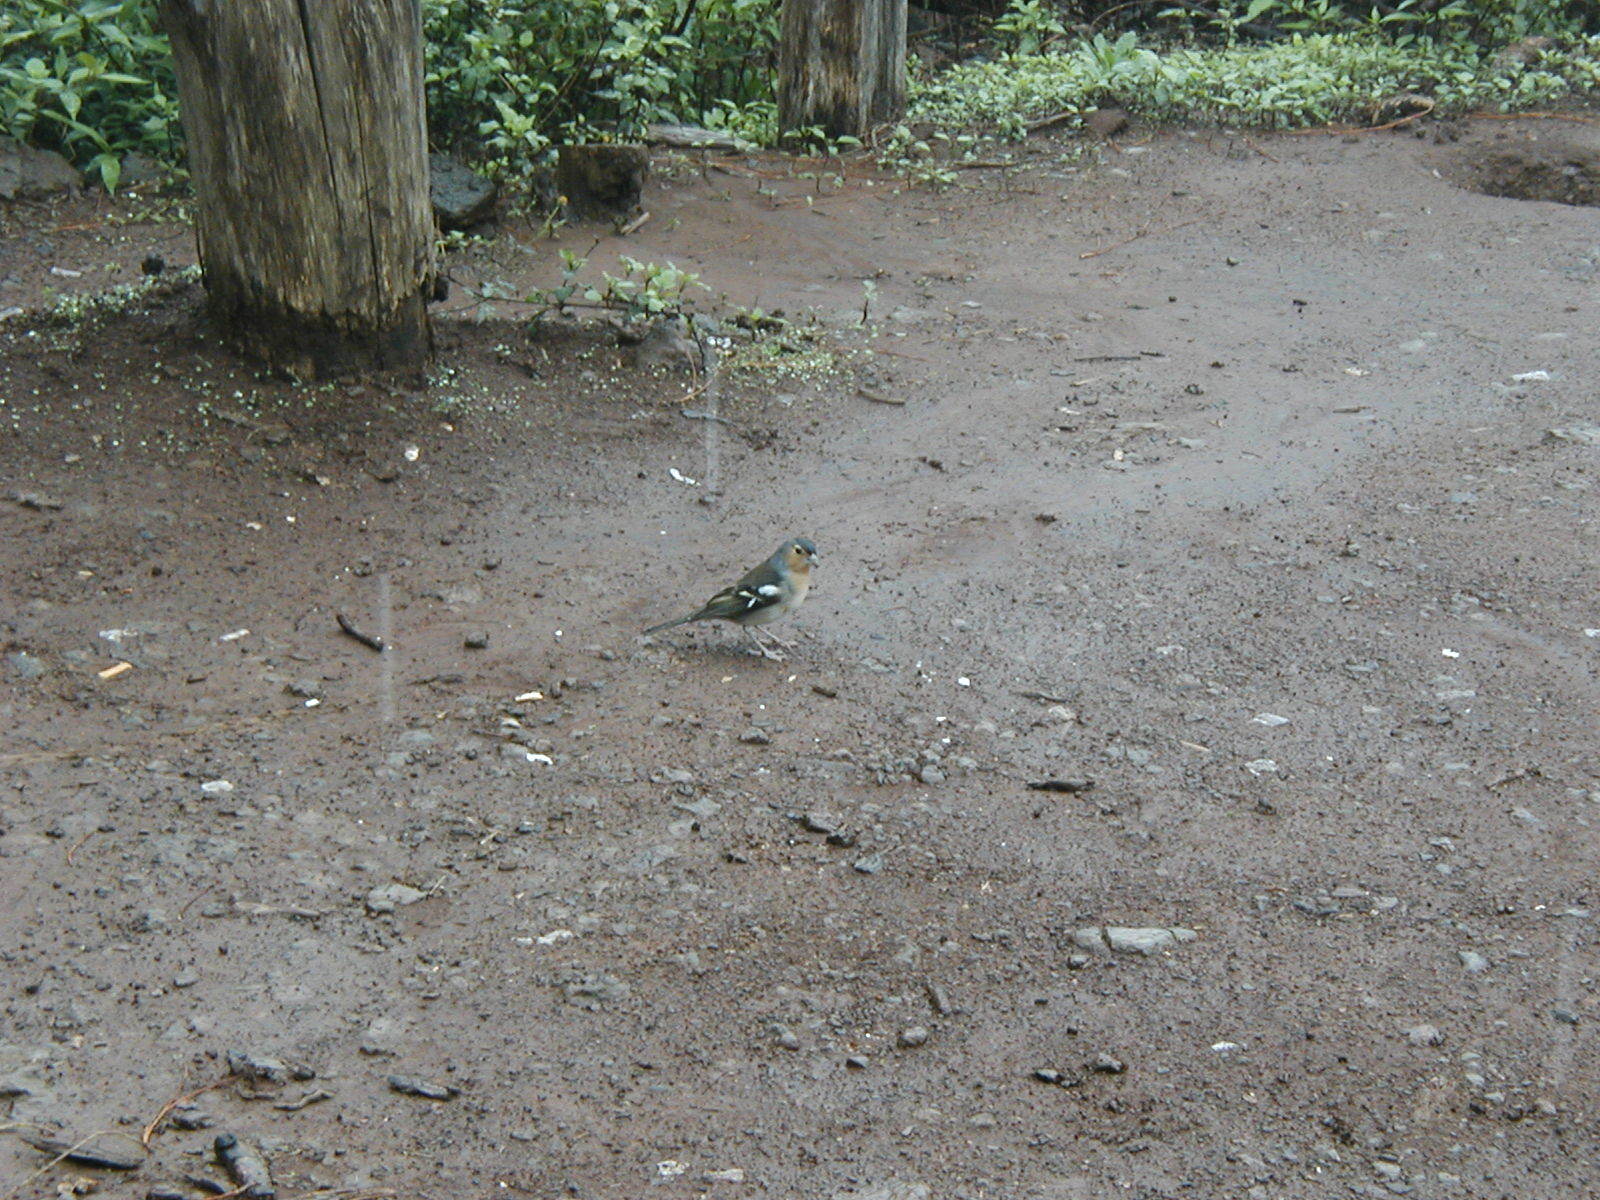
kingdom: Animalia
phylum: Chordata
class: Aves
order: Passeriformes
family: Fringillidae
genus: Fringilla
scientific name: Fringilla canariensis
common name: Canary islands chaffinch
